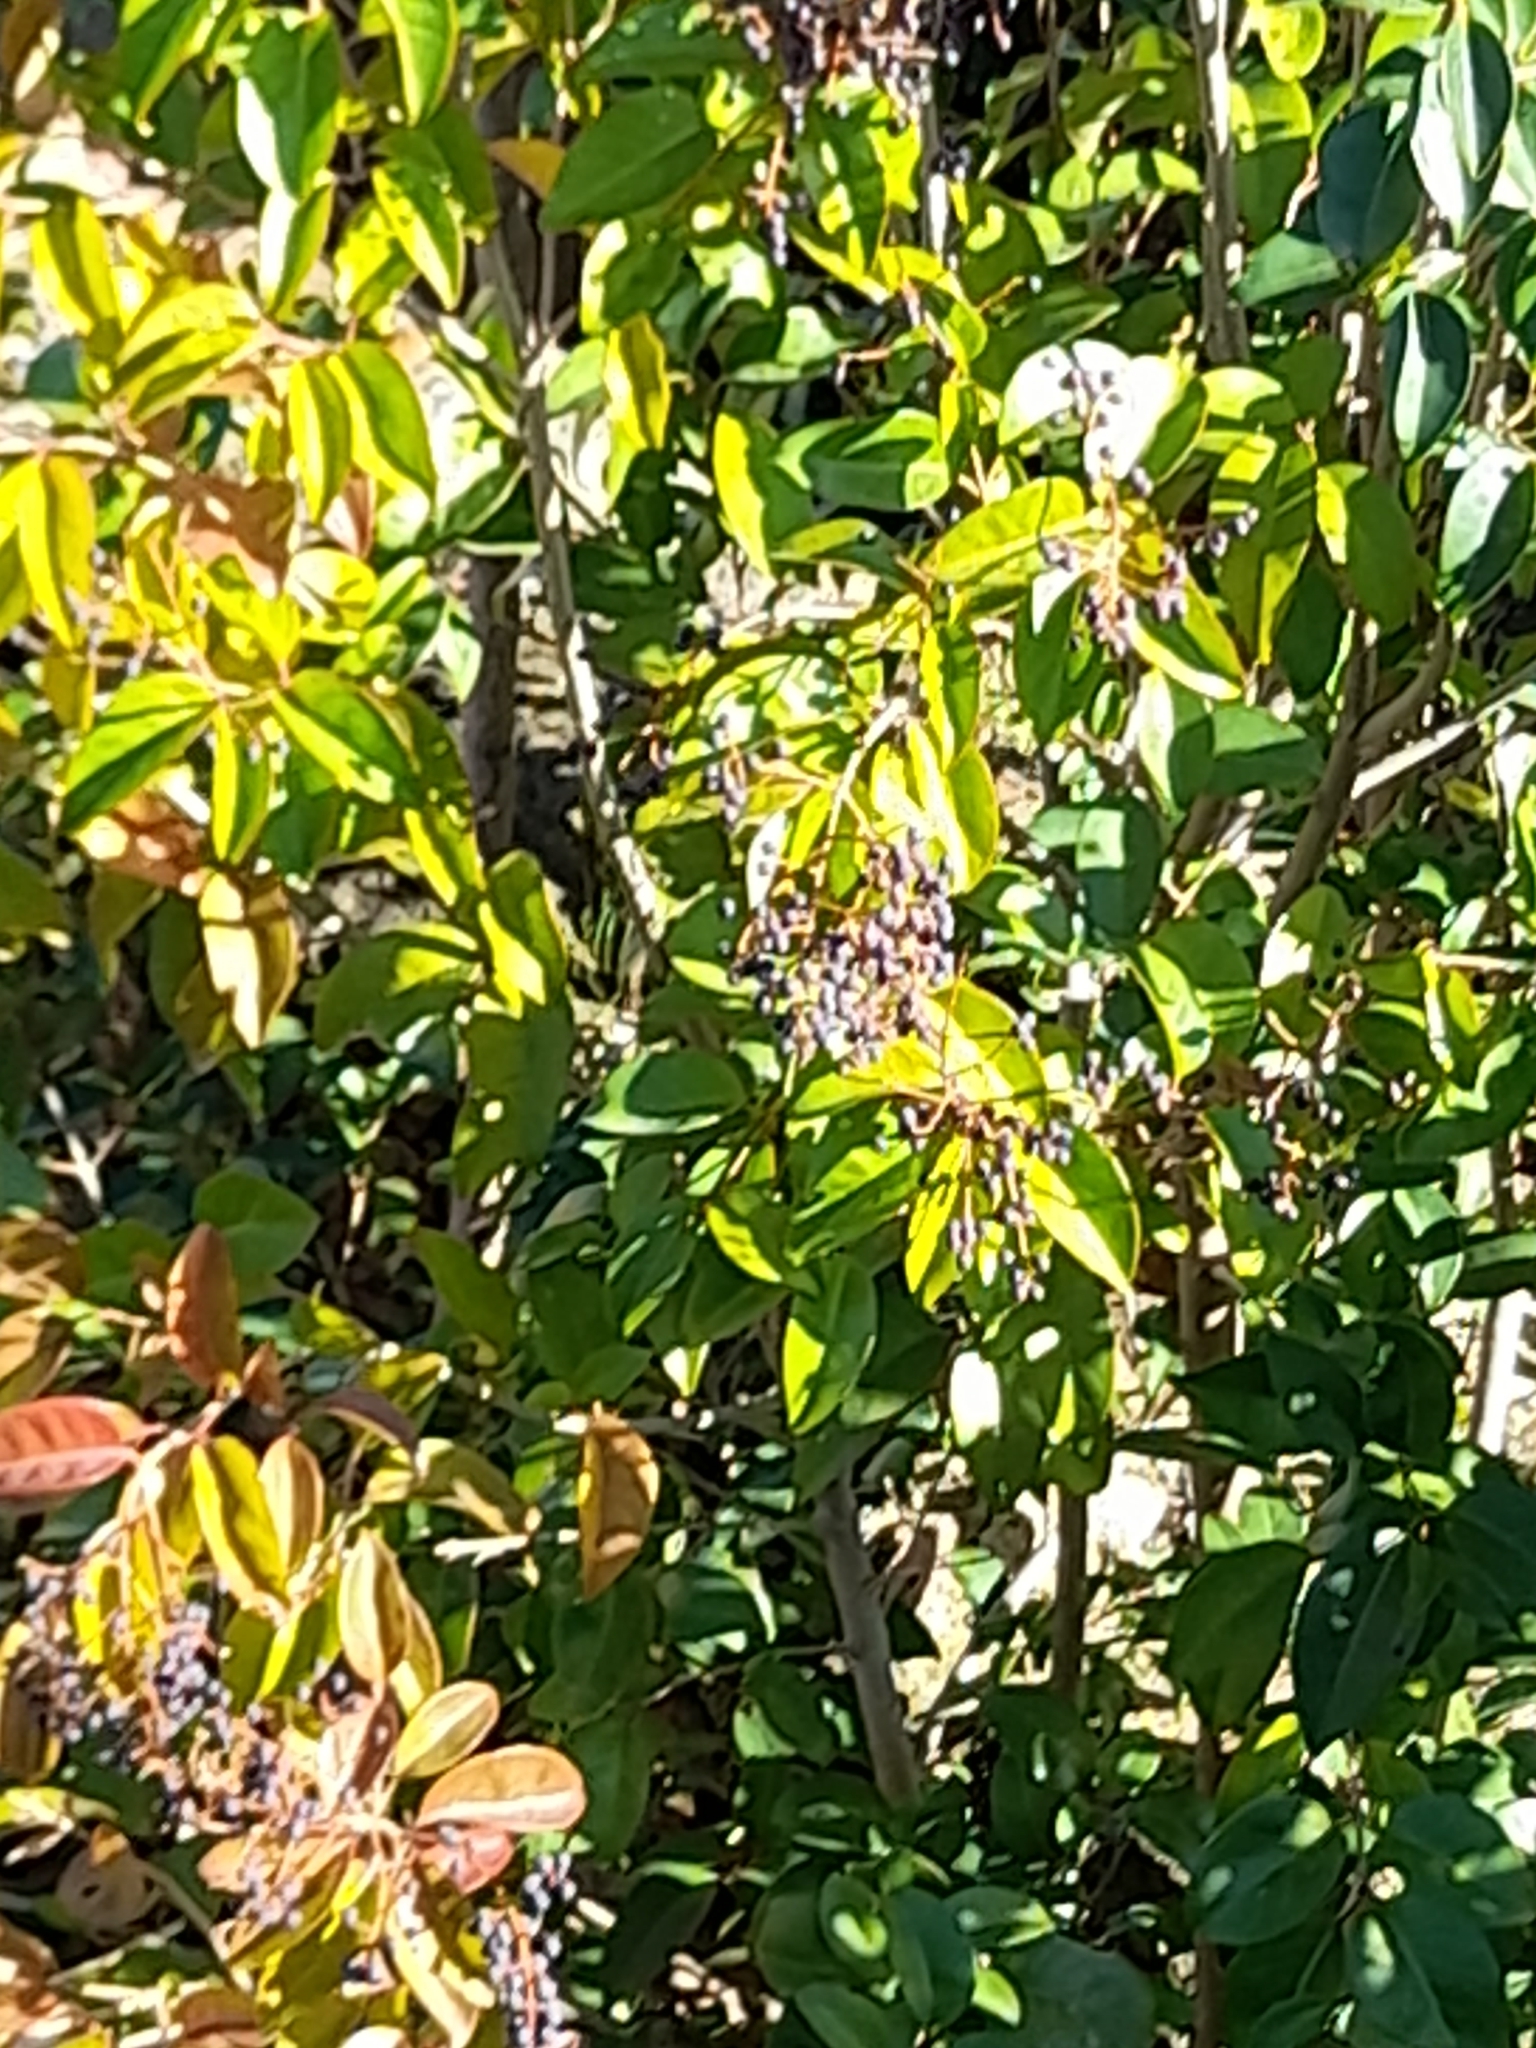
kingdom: Plantae
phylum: Tracheophyta
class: Magnoliopsida
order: Lamiales
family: Oleaceae
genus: Ligustrum
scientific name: Ligustrum lucidum
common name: Glossy privet
